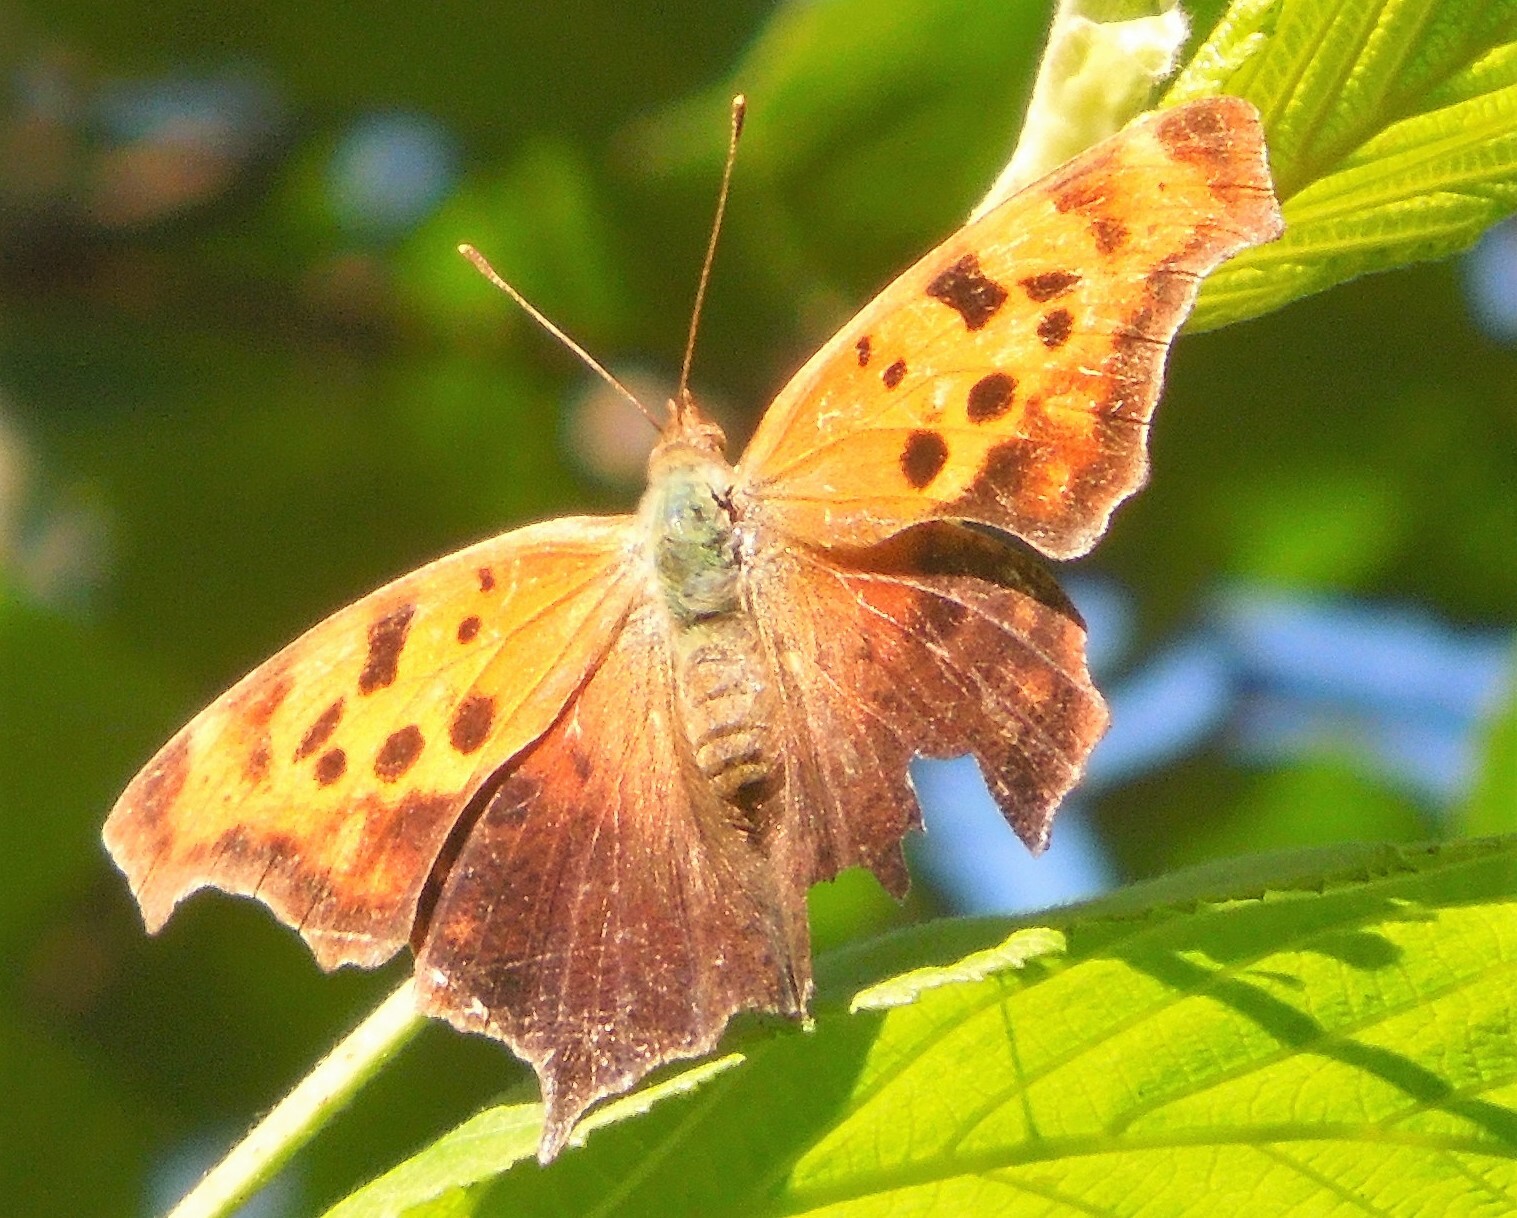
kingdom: Animalia
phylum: Arthropoda
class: Insecta
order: Lepidoptera
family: Nymphalidae
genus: Polygonia
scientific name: Polygonia interrogationis
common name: Question mark
